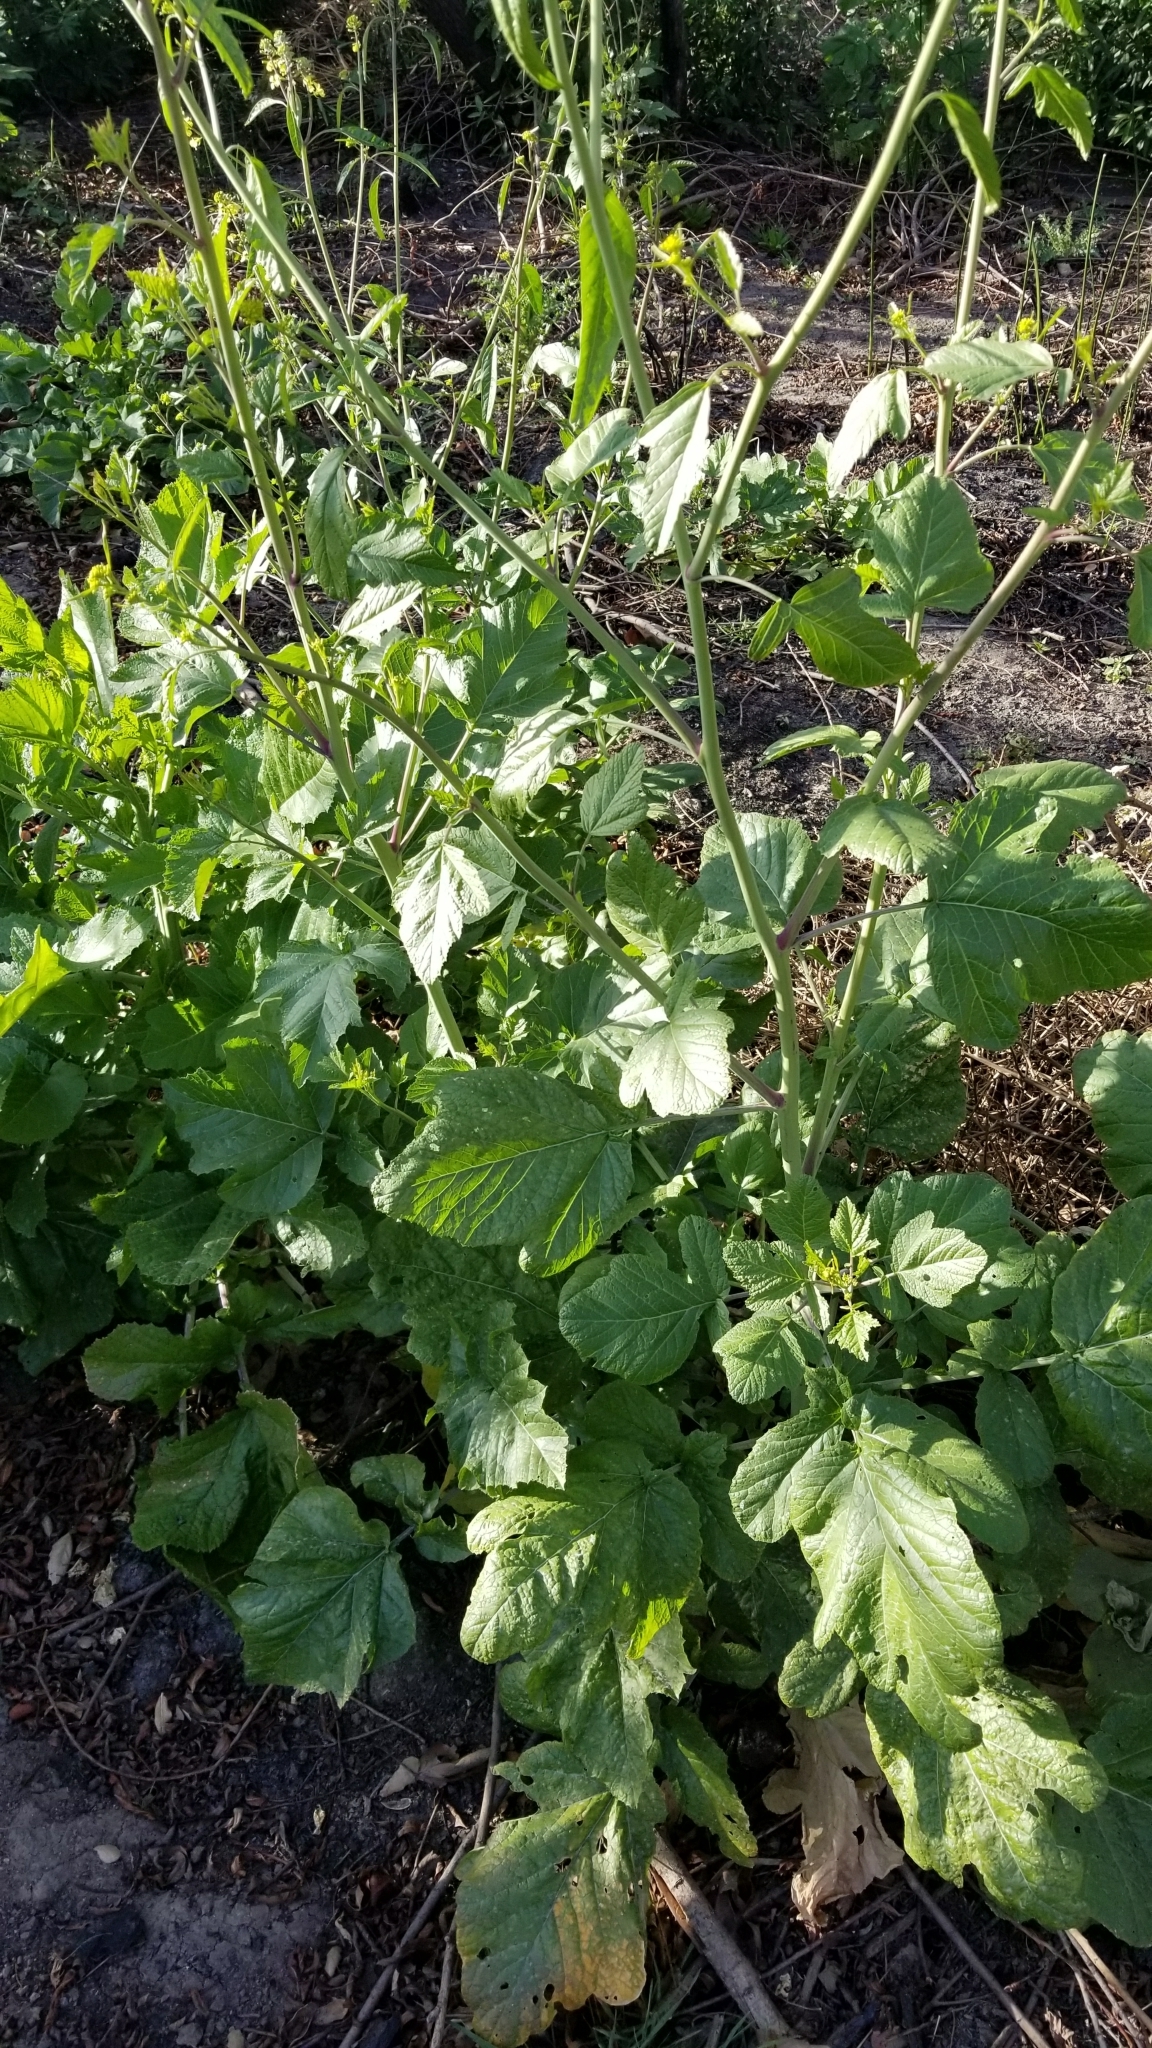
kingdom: Plantae
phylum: Tracheophyta
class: Magnoliopsida
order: Brassicales
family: Brassicaceae
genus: Brassica
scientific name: Brassica nigra
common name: Black mustard
